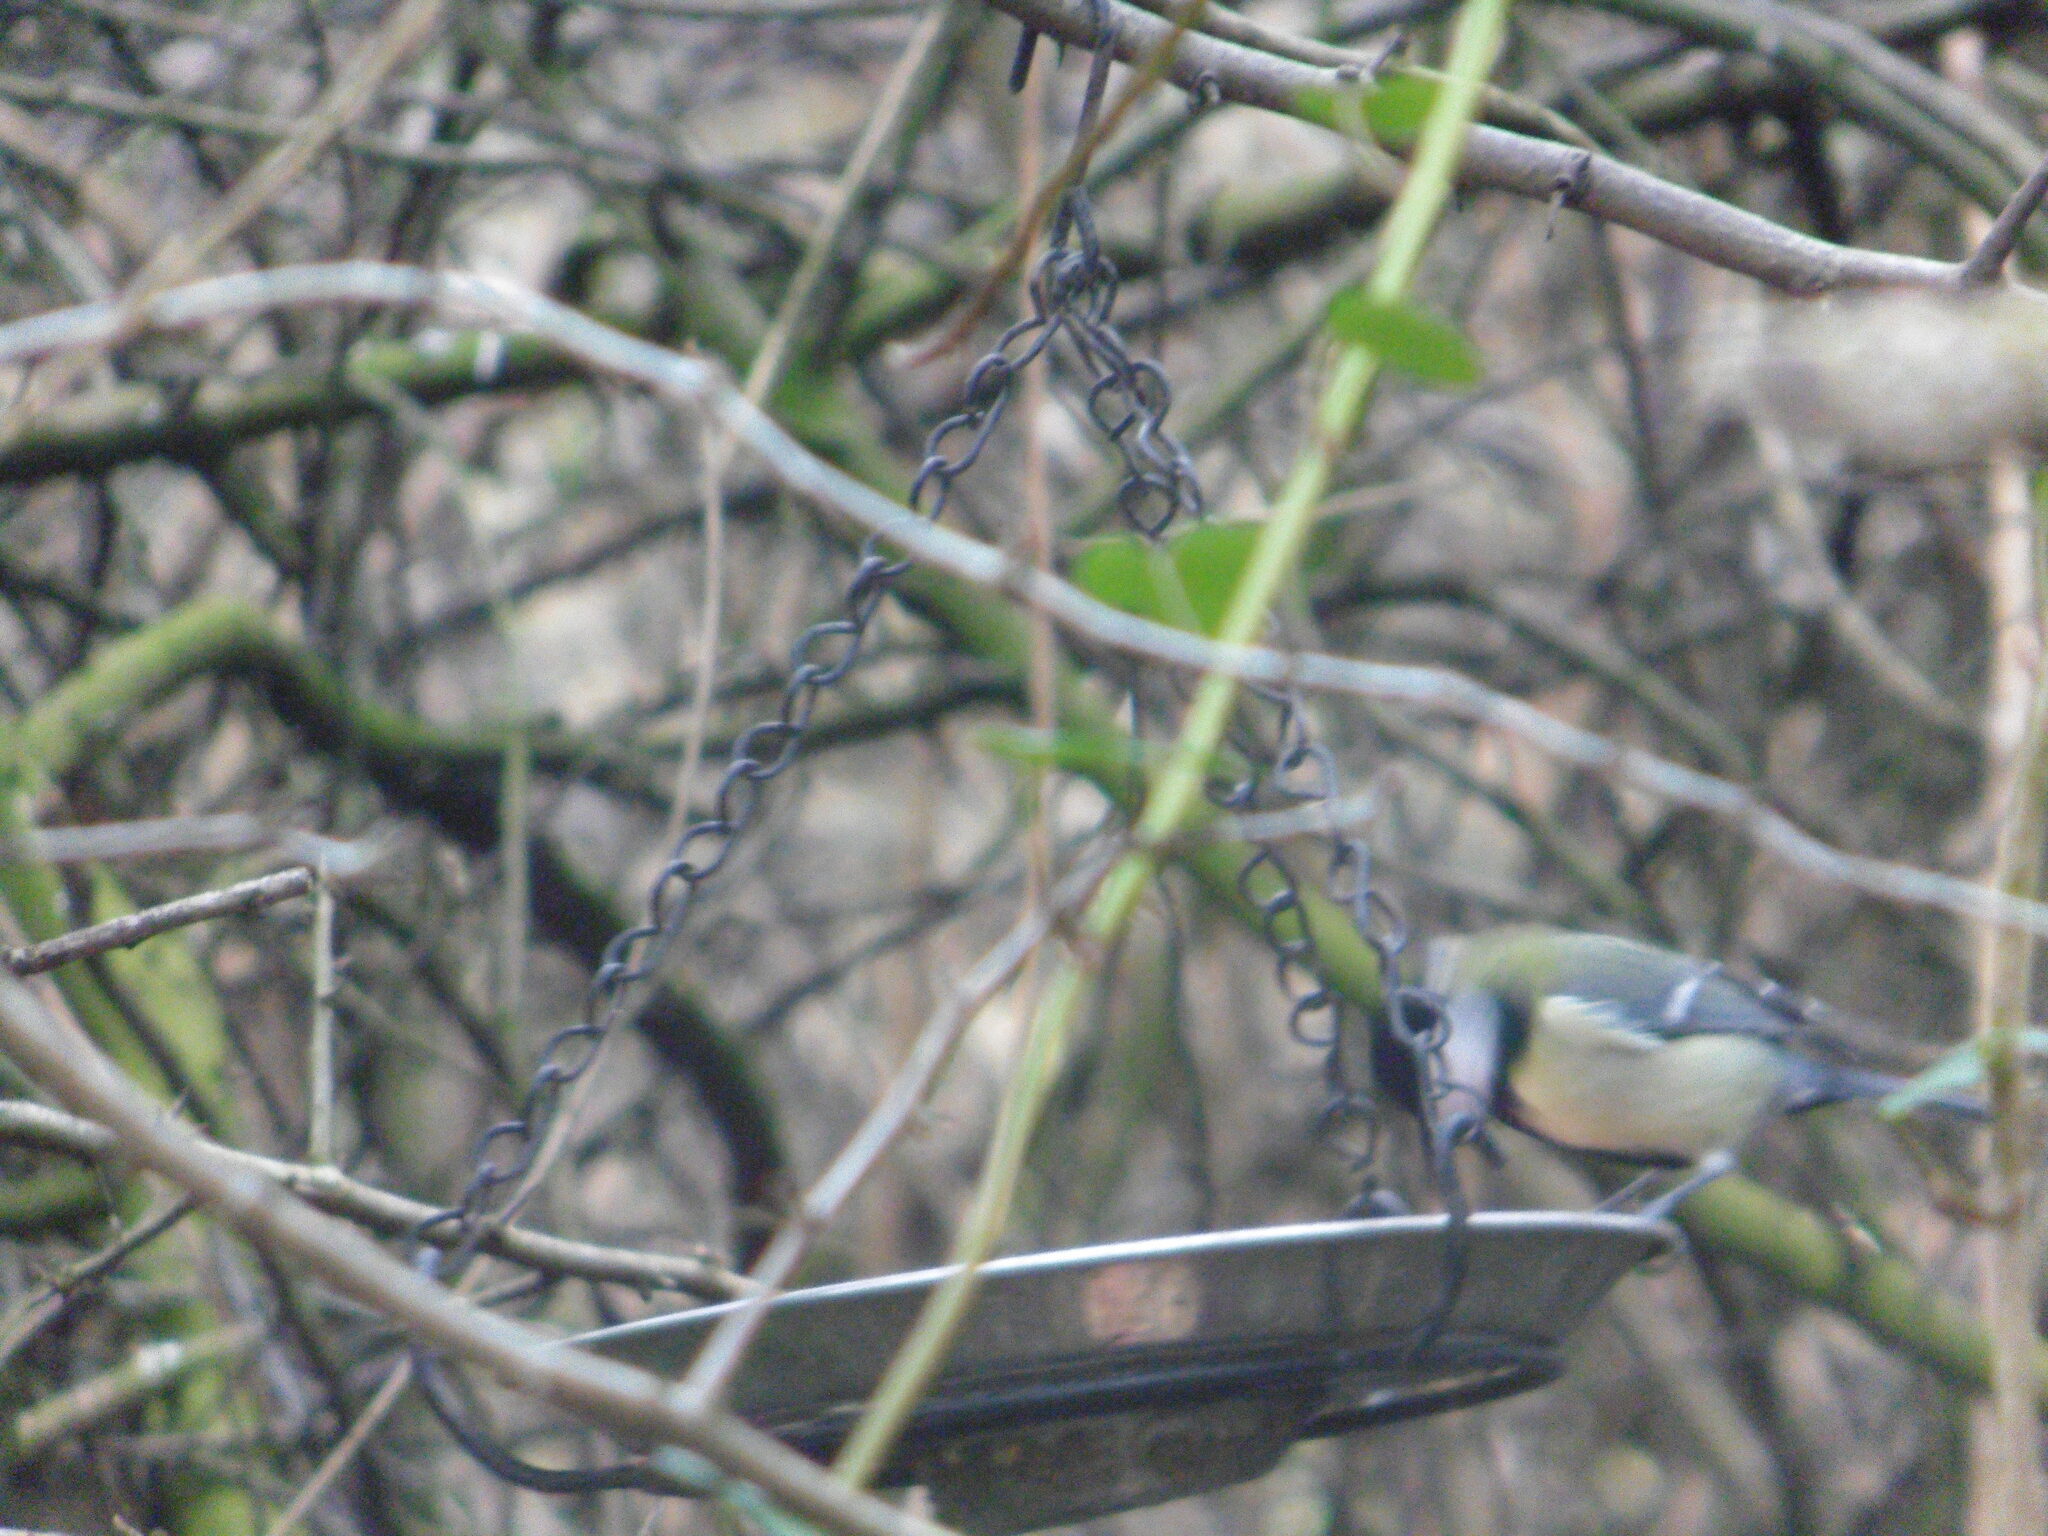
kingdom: Animalia
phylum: Chordata
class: Aves
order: Passeriformes
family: Paridae
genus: Parus
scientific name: Parus major
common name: Great tit
